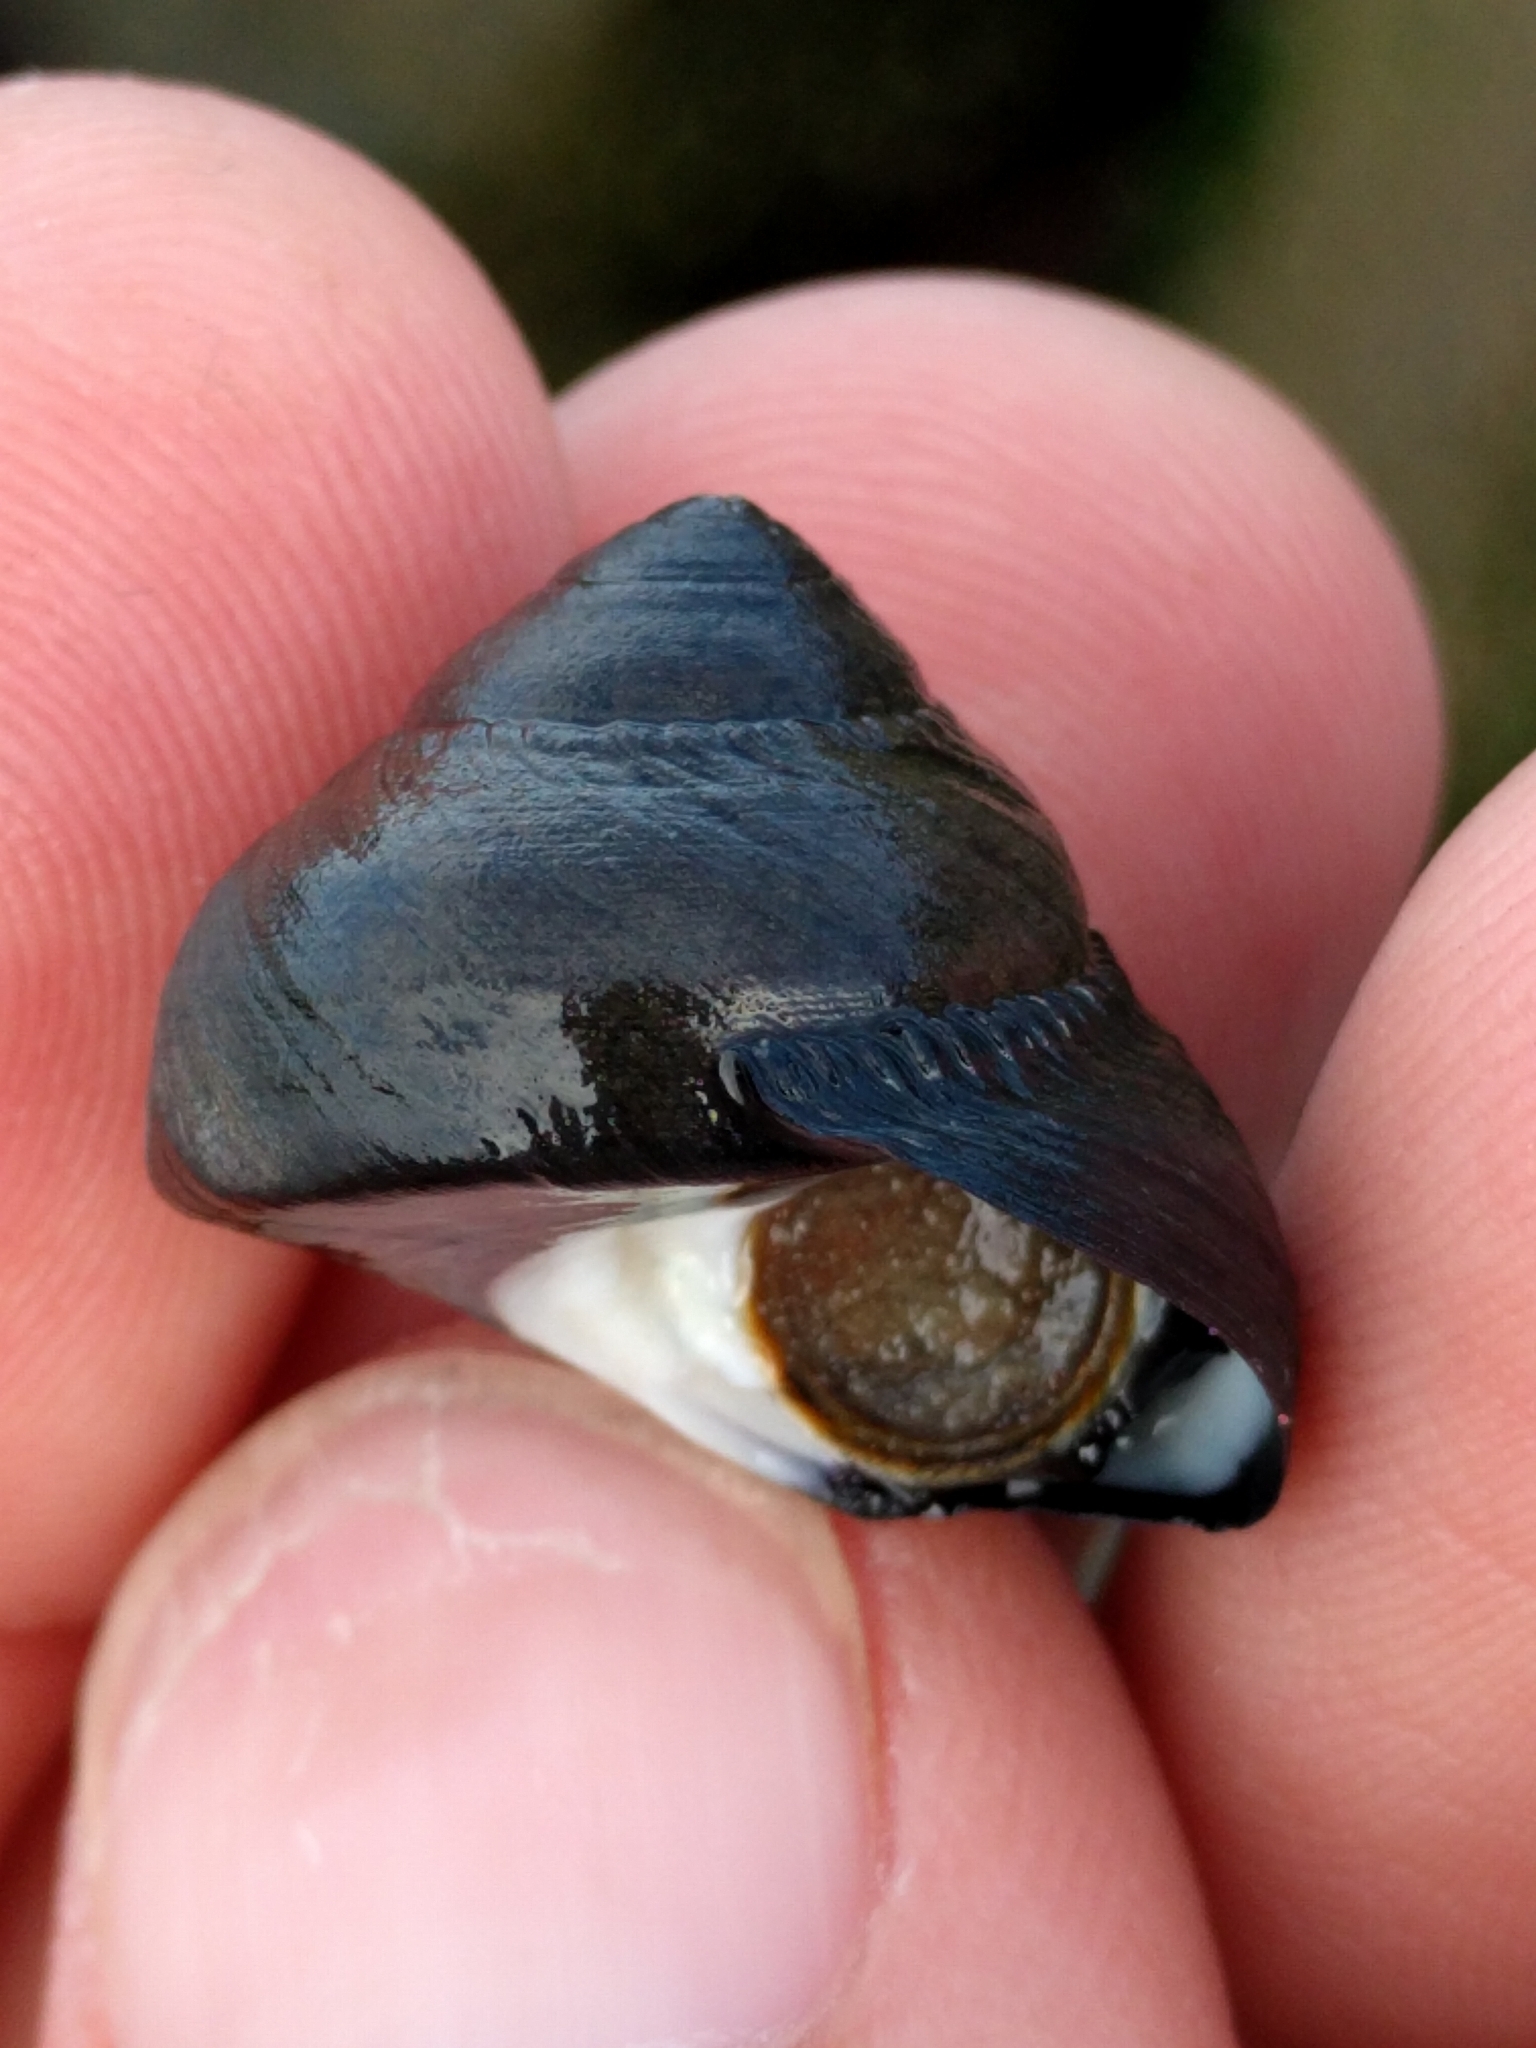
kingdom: Animalia
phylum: Mollusca
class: Gastropoda
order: Trochida
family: Tegulidae
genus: Tegula
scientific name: Tegula funebralis
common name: Black tegula
